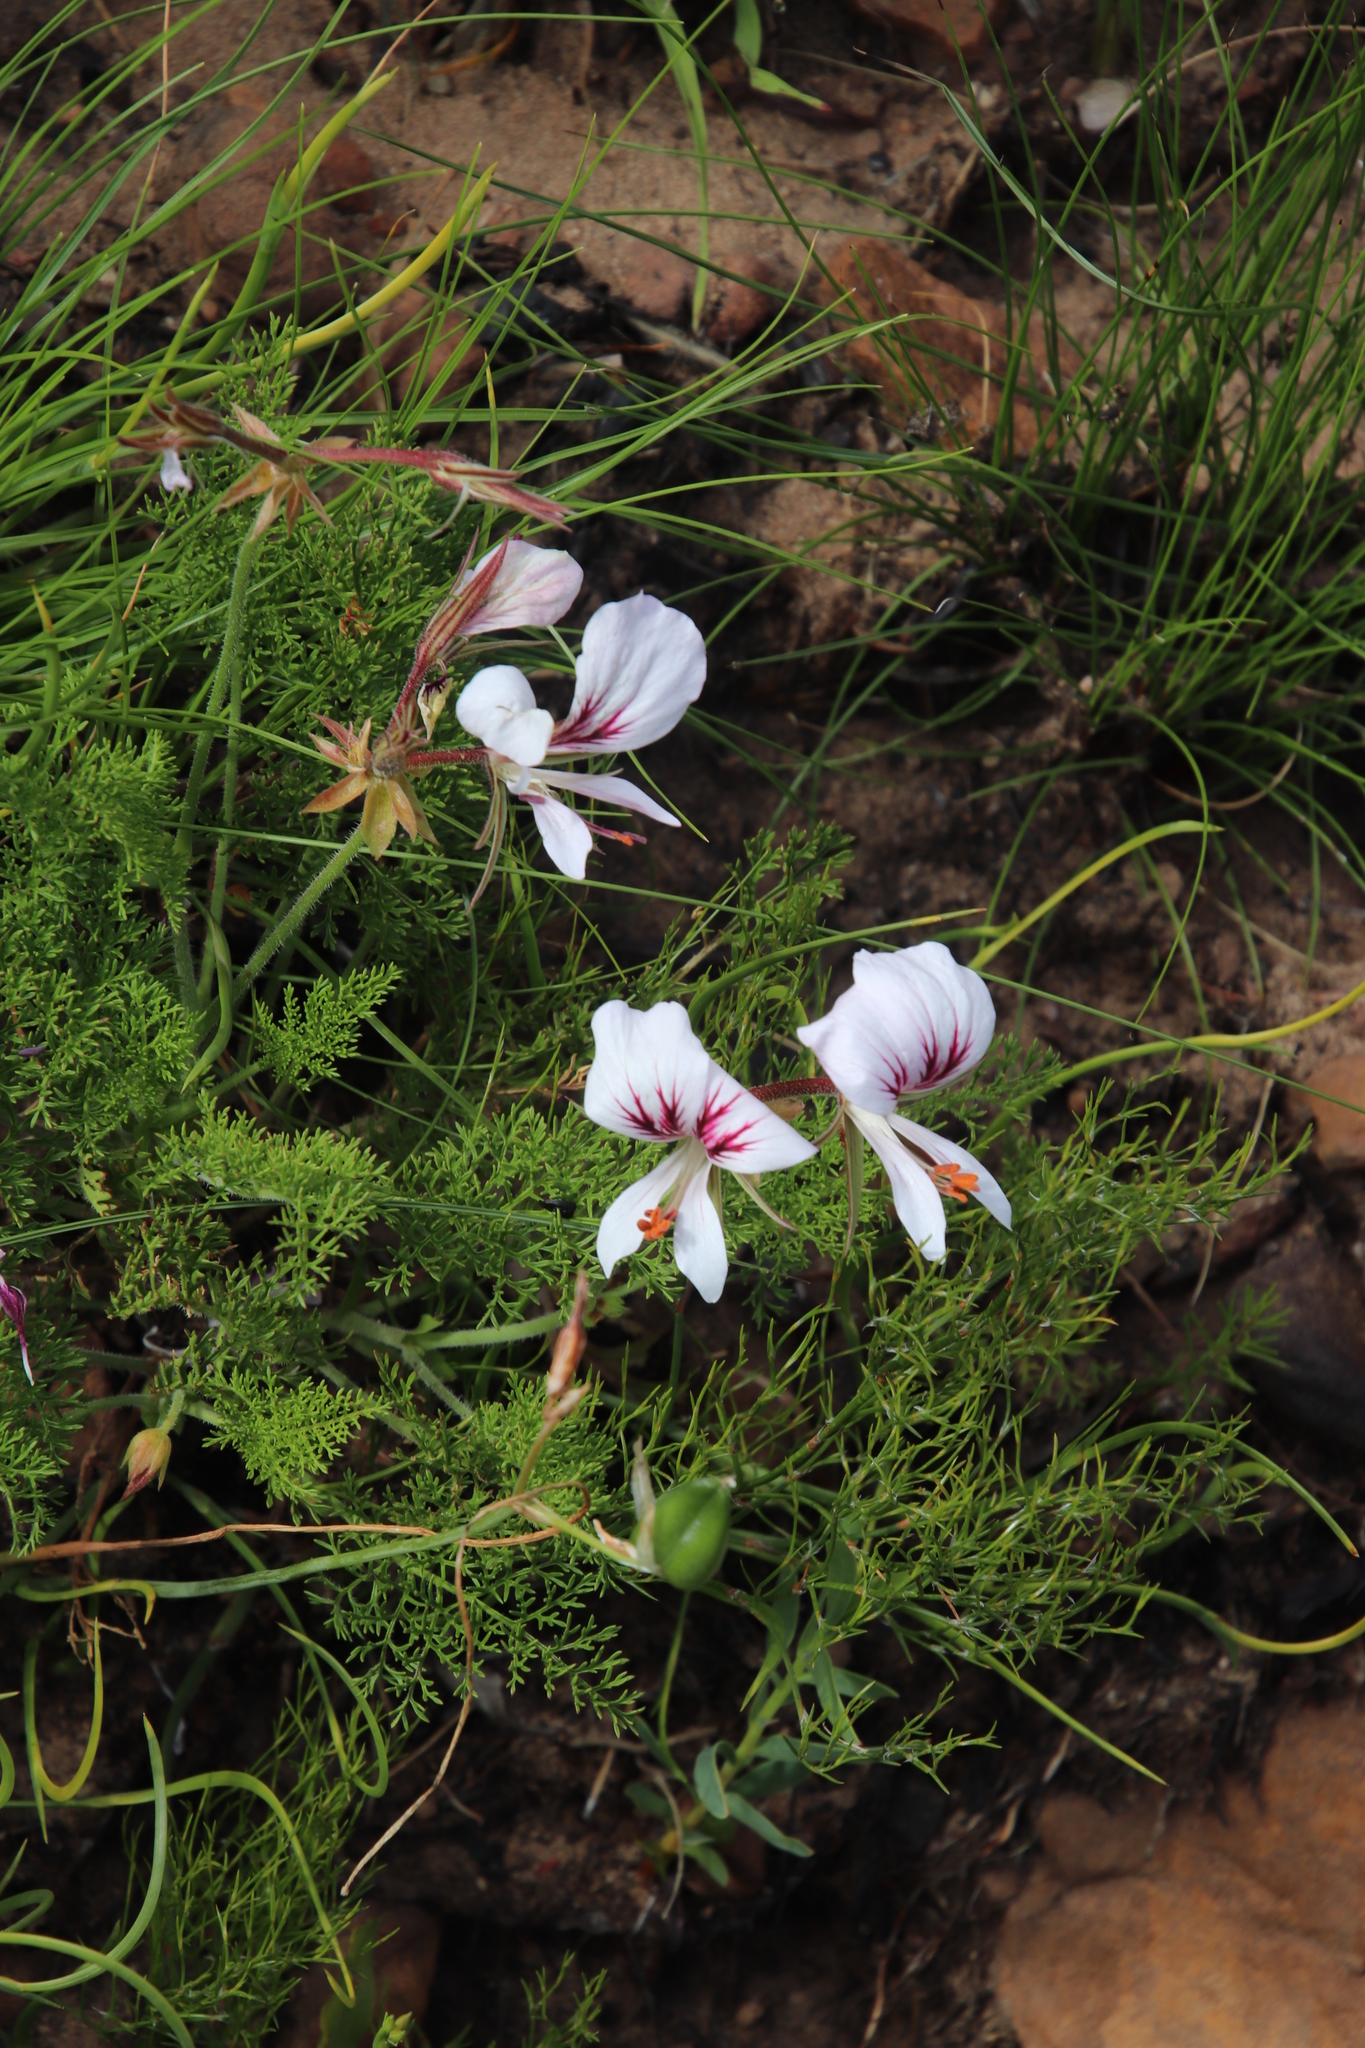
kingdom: Plantae
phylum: Tracheophyta
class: Magnoliopsida
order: Geraniales
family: Geraniaceae
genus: Pelargonium
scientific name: Pelargonium myrrhifolium
